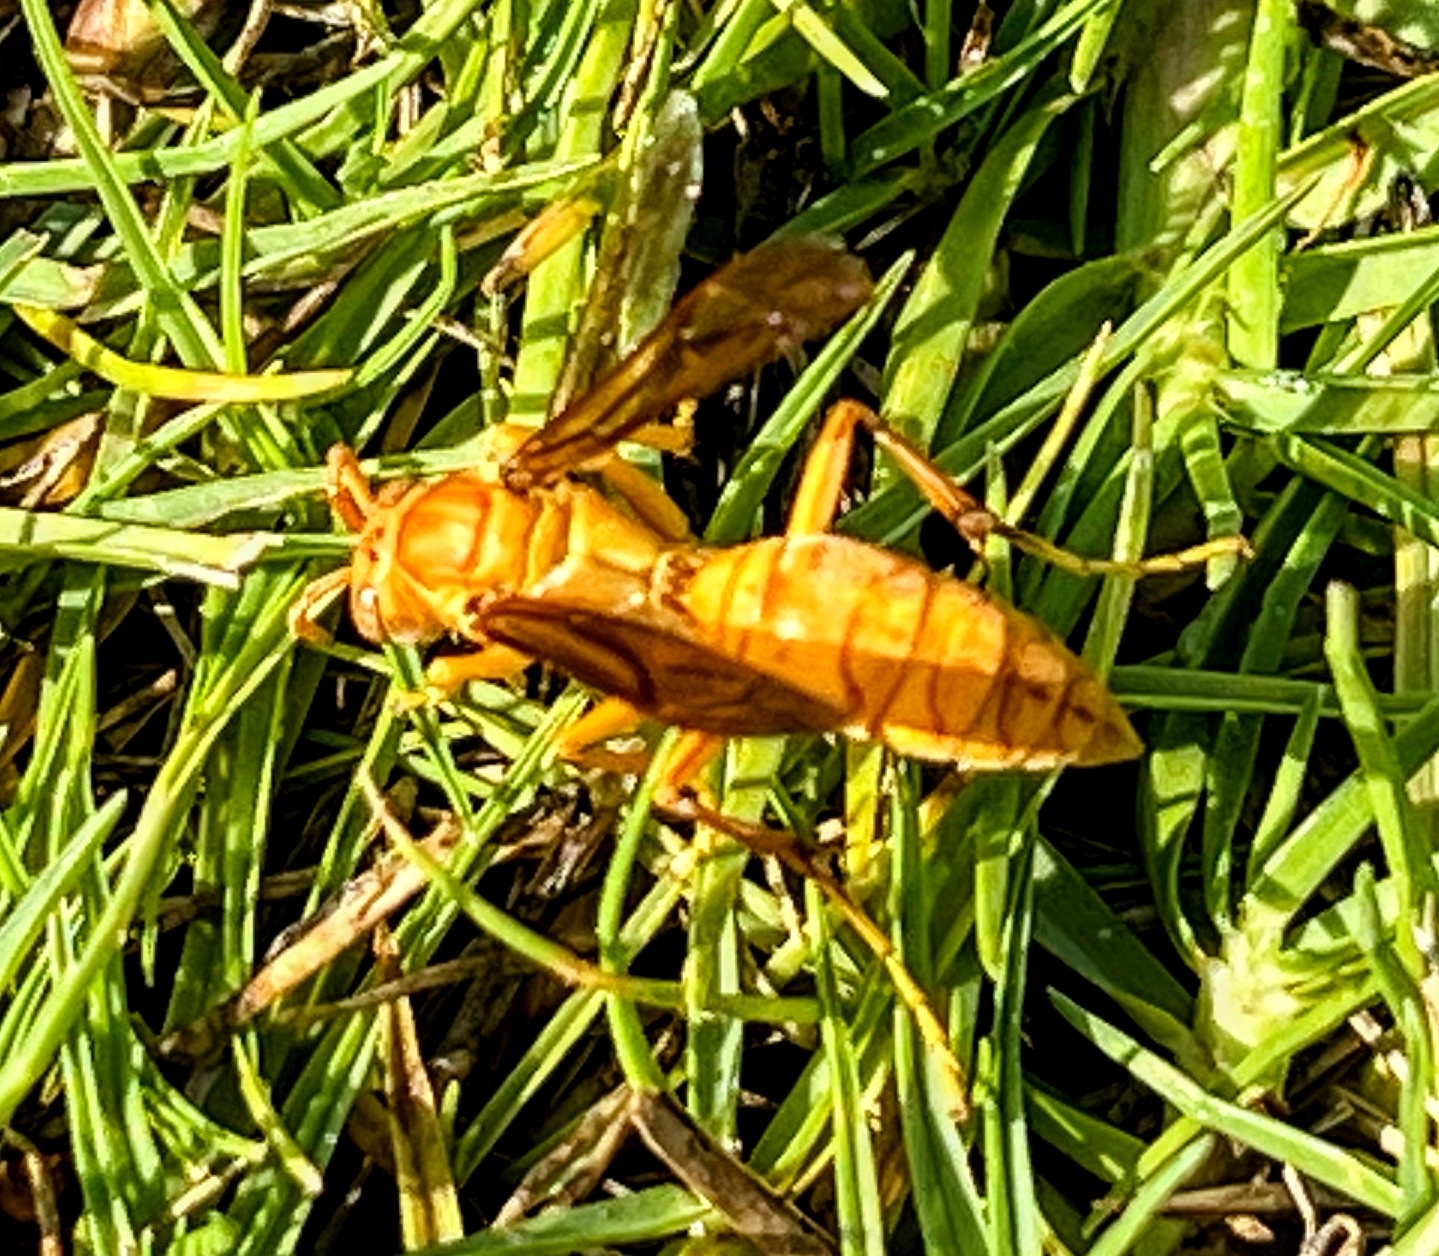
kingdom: Animalia
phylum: Arthropoda
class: Insecta
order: Hymenoptera
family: Eumenidae
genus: Polistes
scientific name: Polistes wattii
